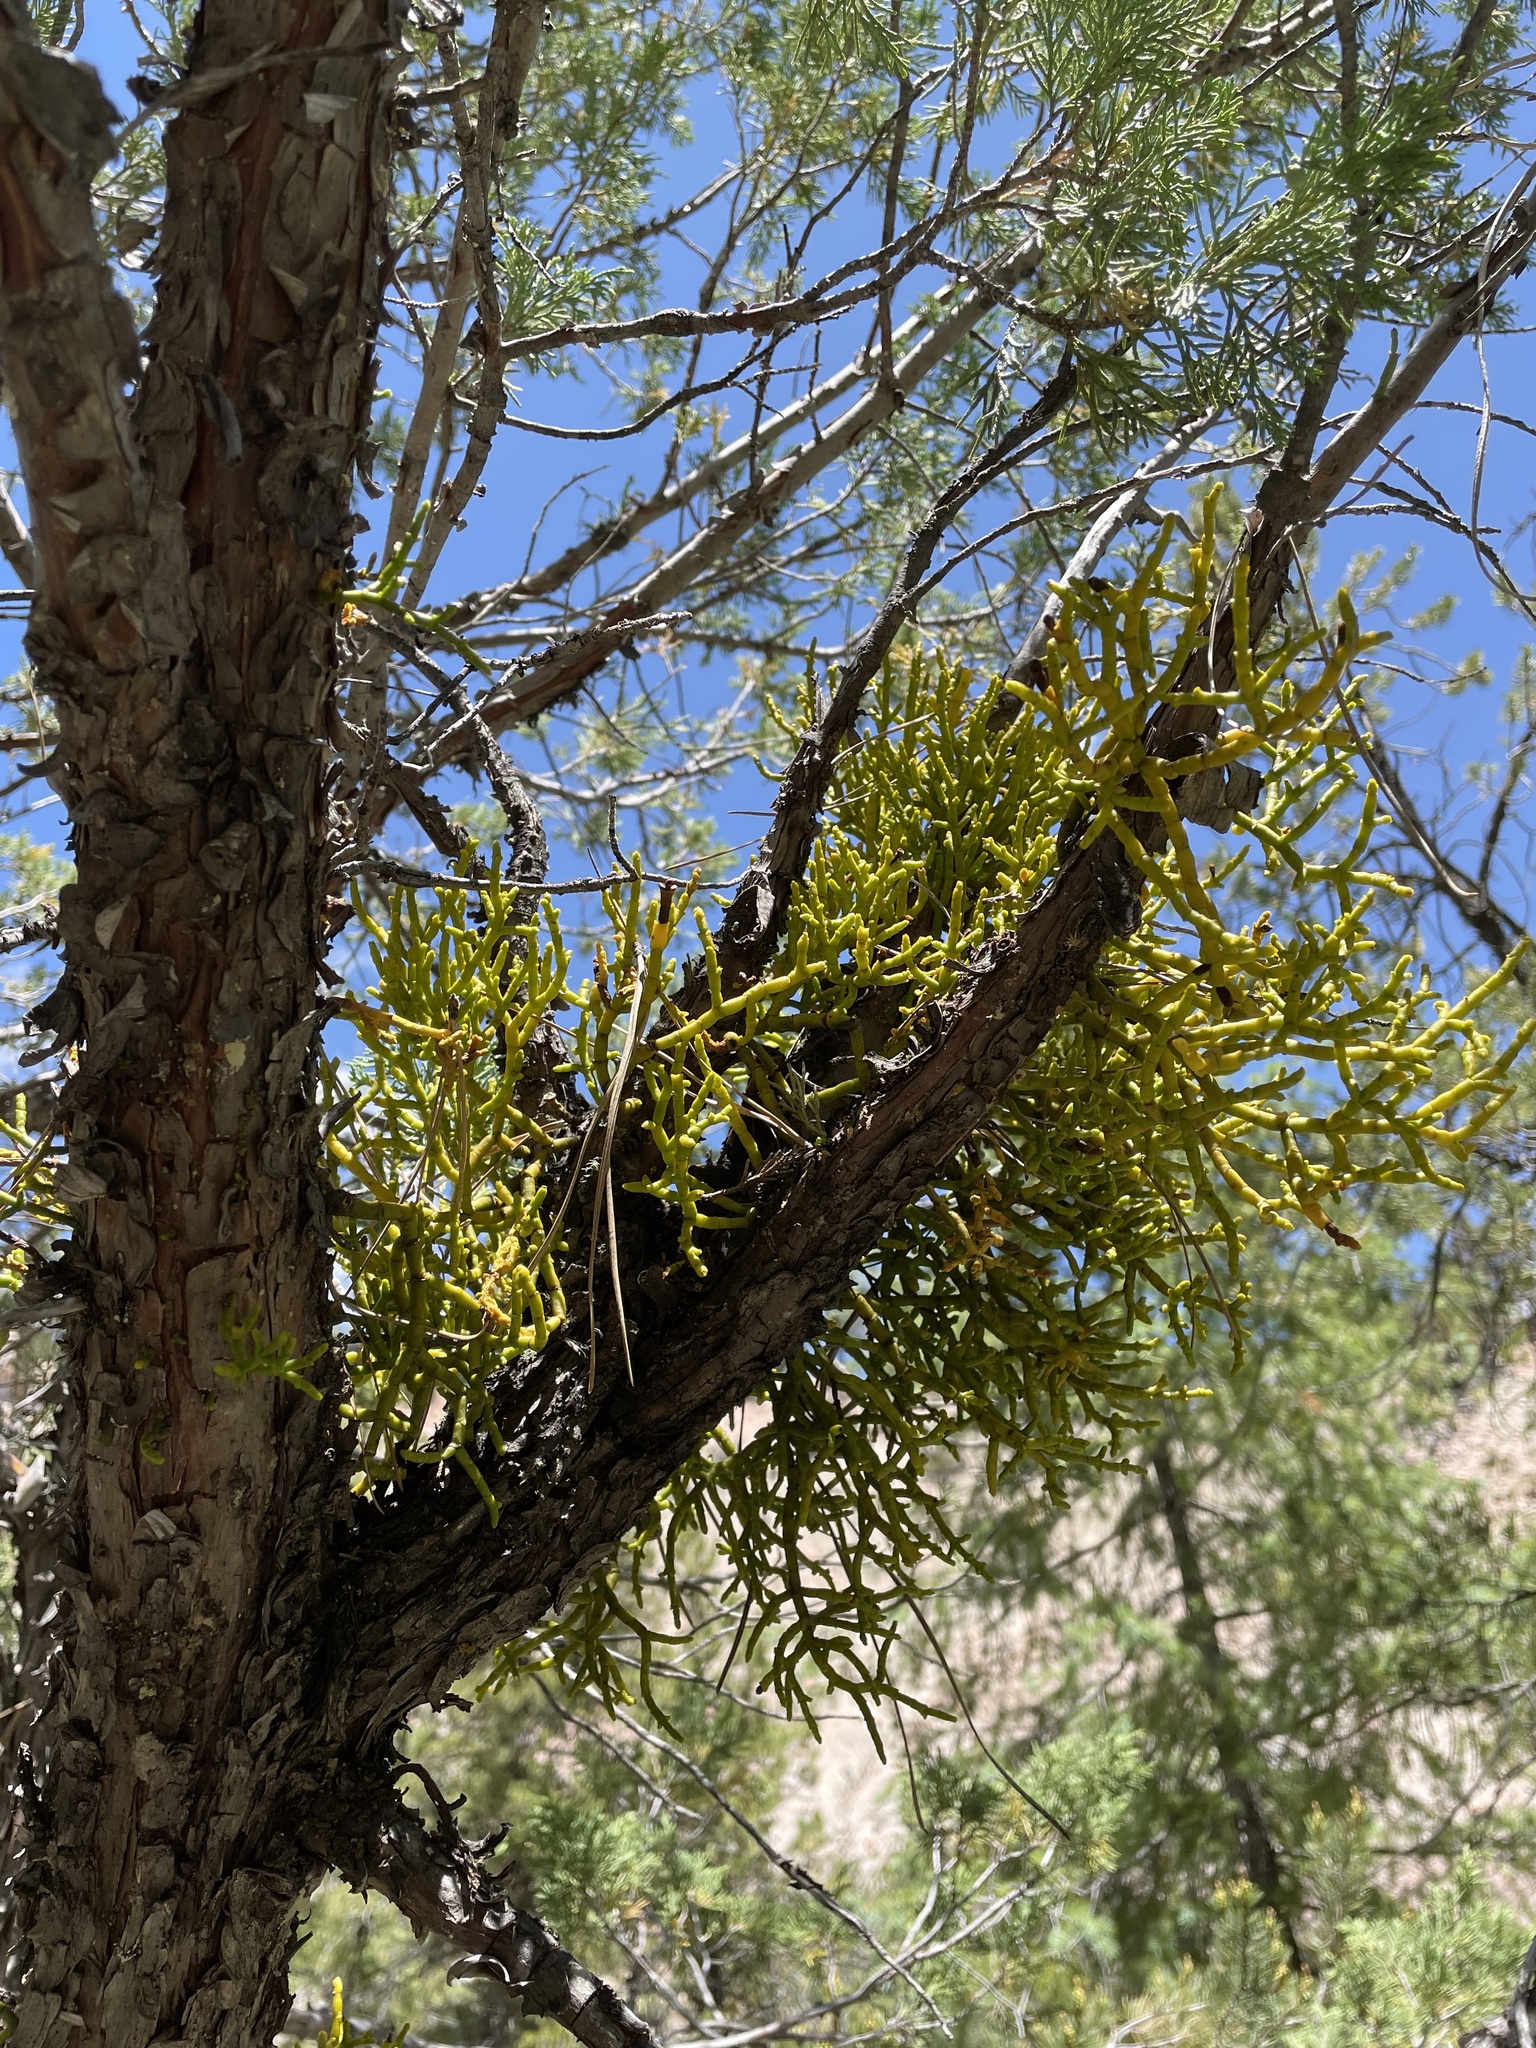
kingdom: Plantae
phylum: Tracheophyta
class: Magnoliopsida
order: Santalales
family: Viscaceae
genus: Phoradendron
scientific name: Phoradendron juniperinum
